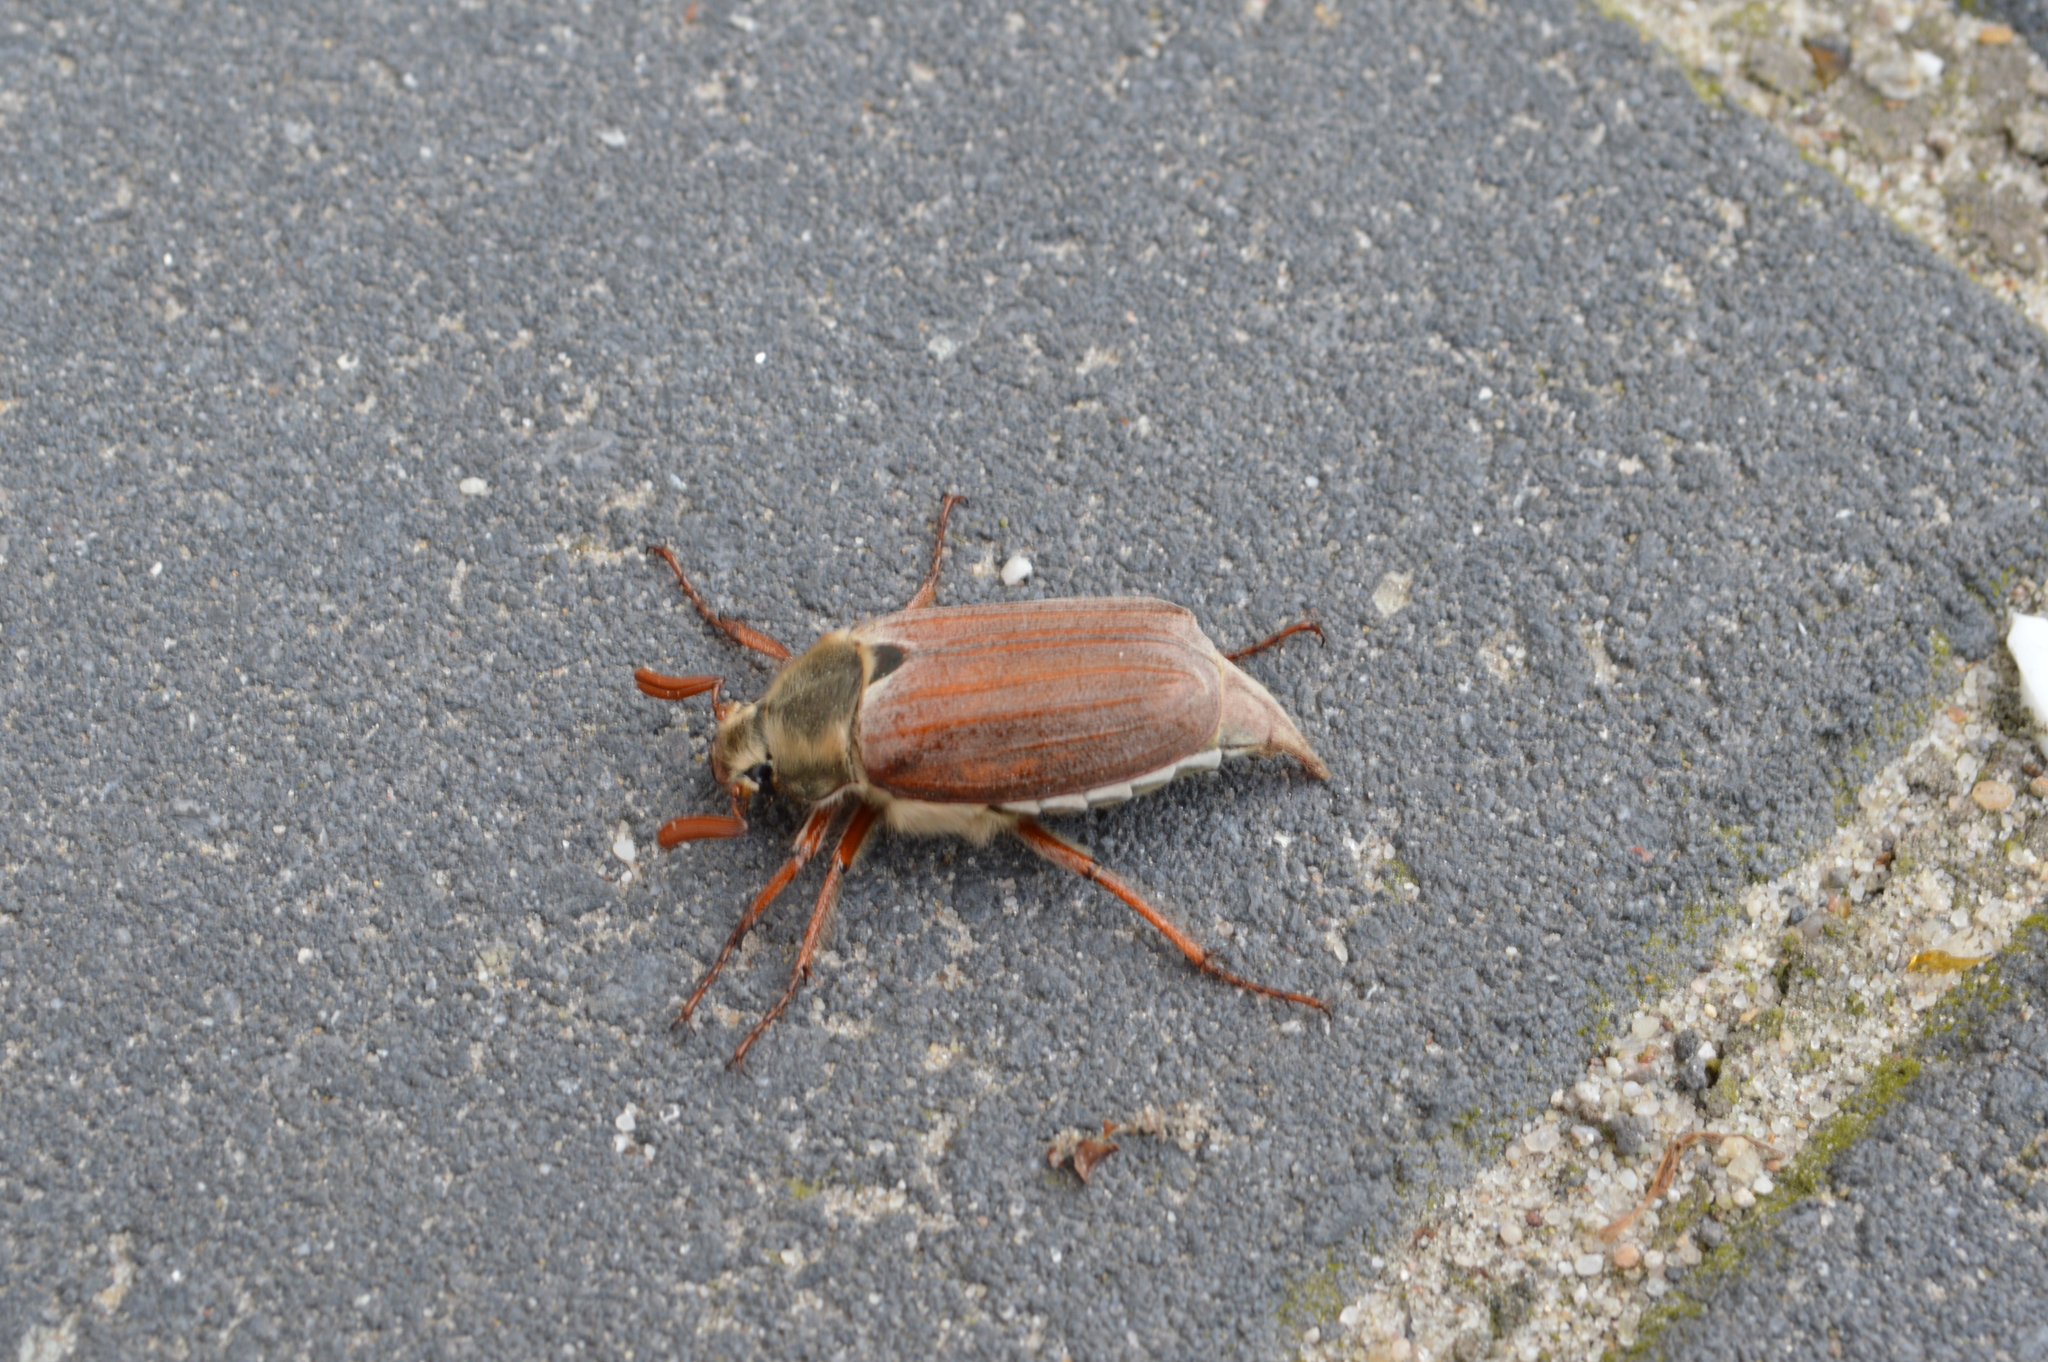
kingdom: Animalia
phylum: Arthropoda
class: Insecta
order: Coleoptera
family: Scarabaeidae
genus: Melolontha
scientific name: Melolontha melolontha
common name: Cockchafer maybeetle
